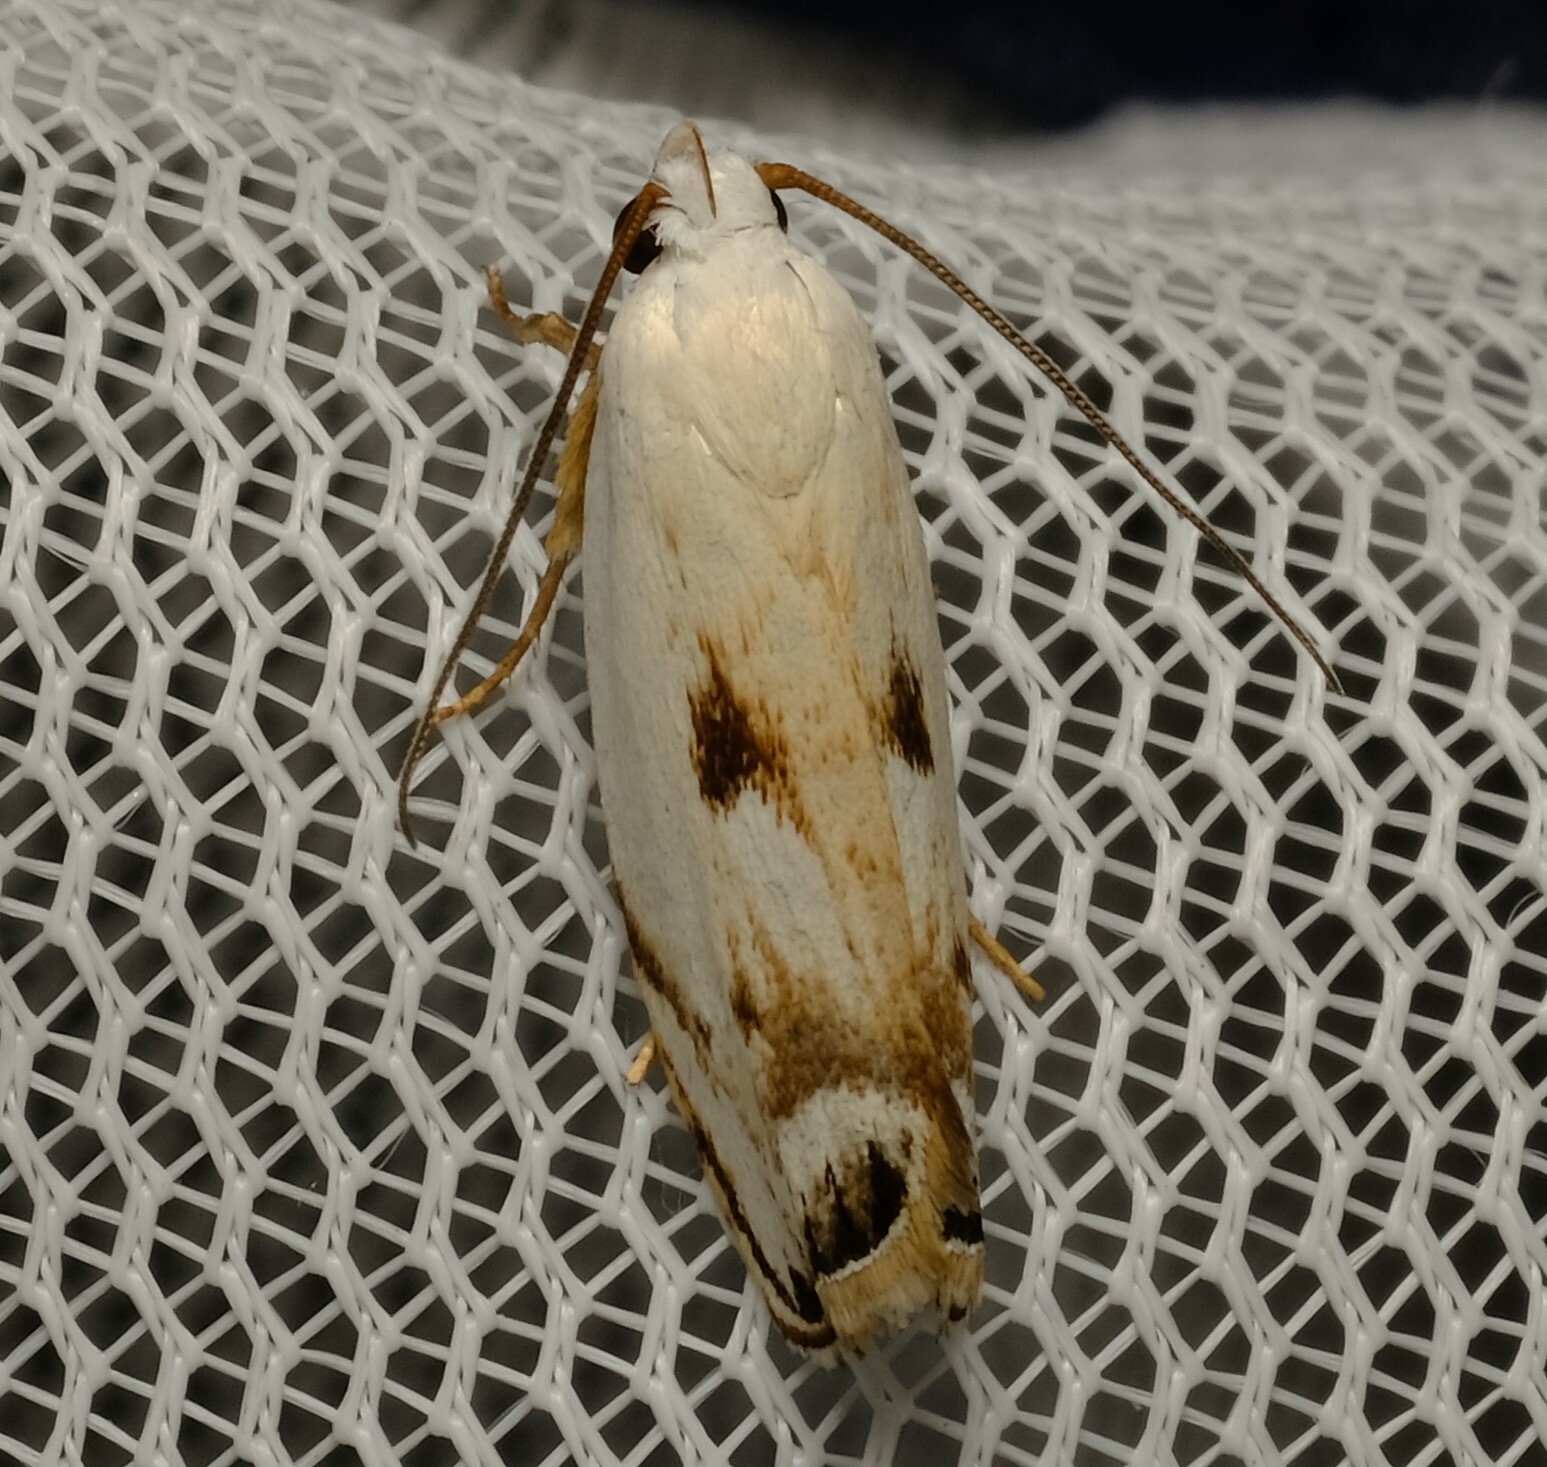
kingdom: Animalia
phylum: Arthropoda
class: Insecta
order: Lepidoptera
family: Xyloryctidae
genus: Plectophila
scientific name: Plectophila discalis
